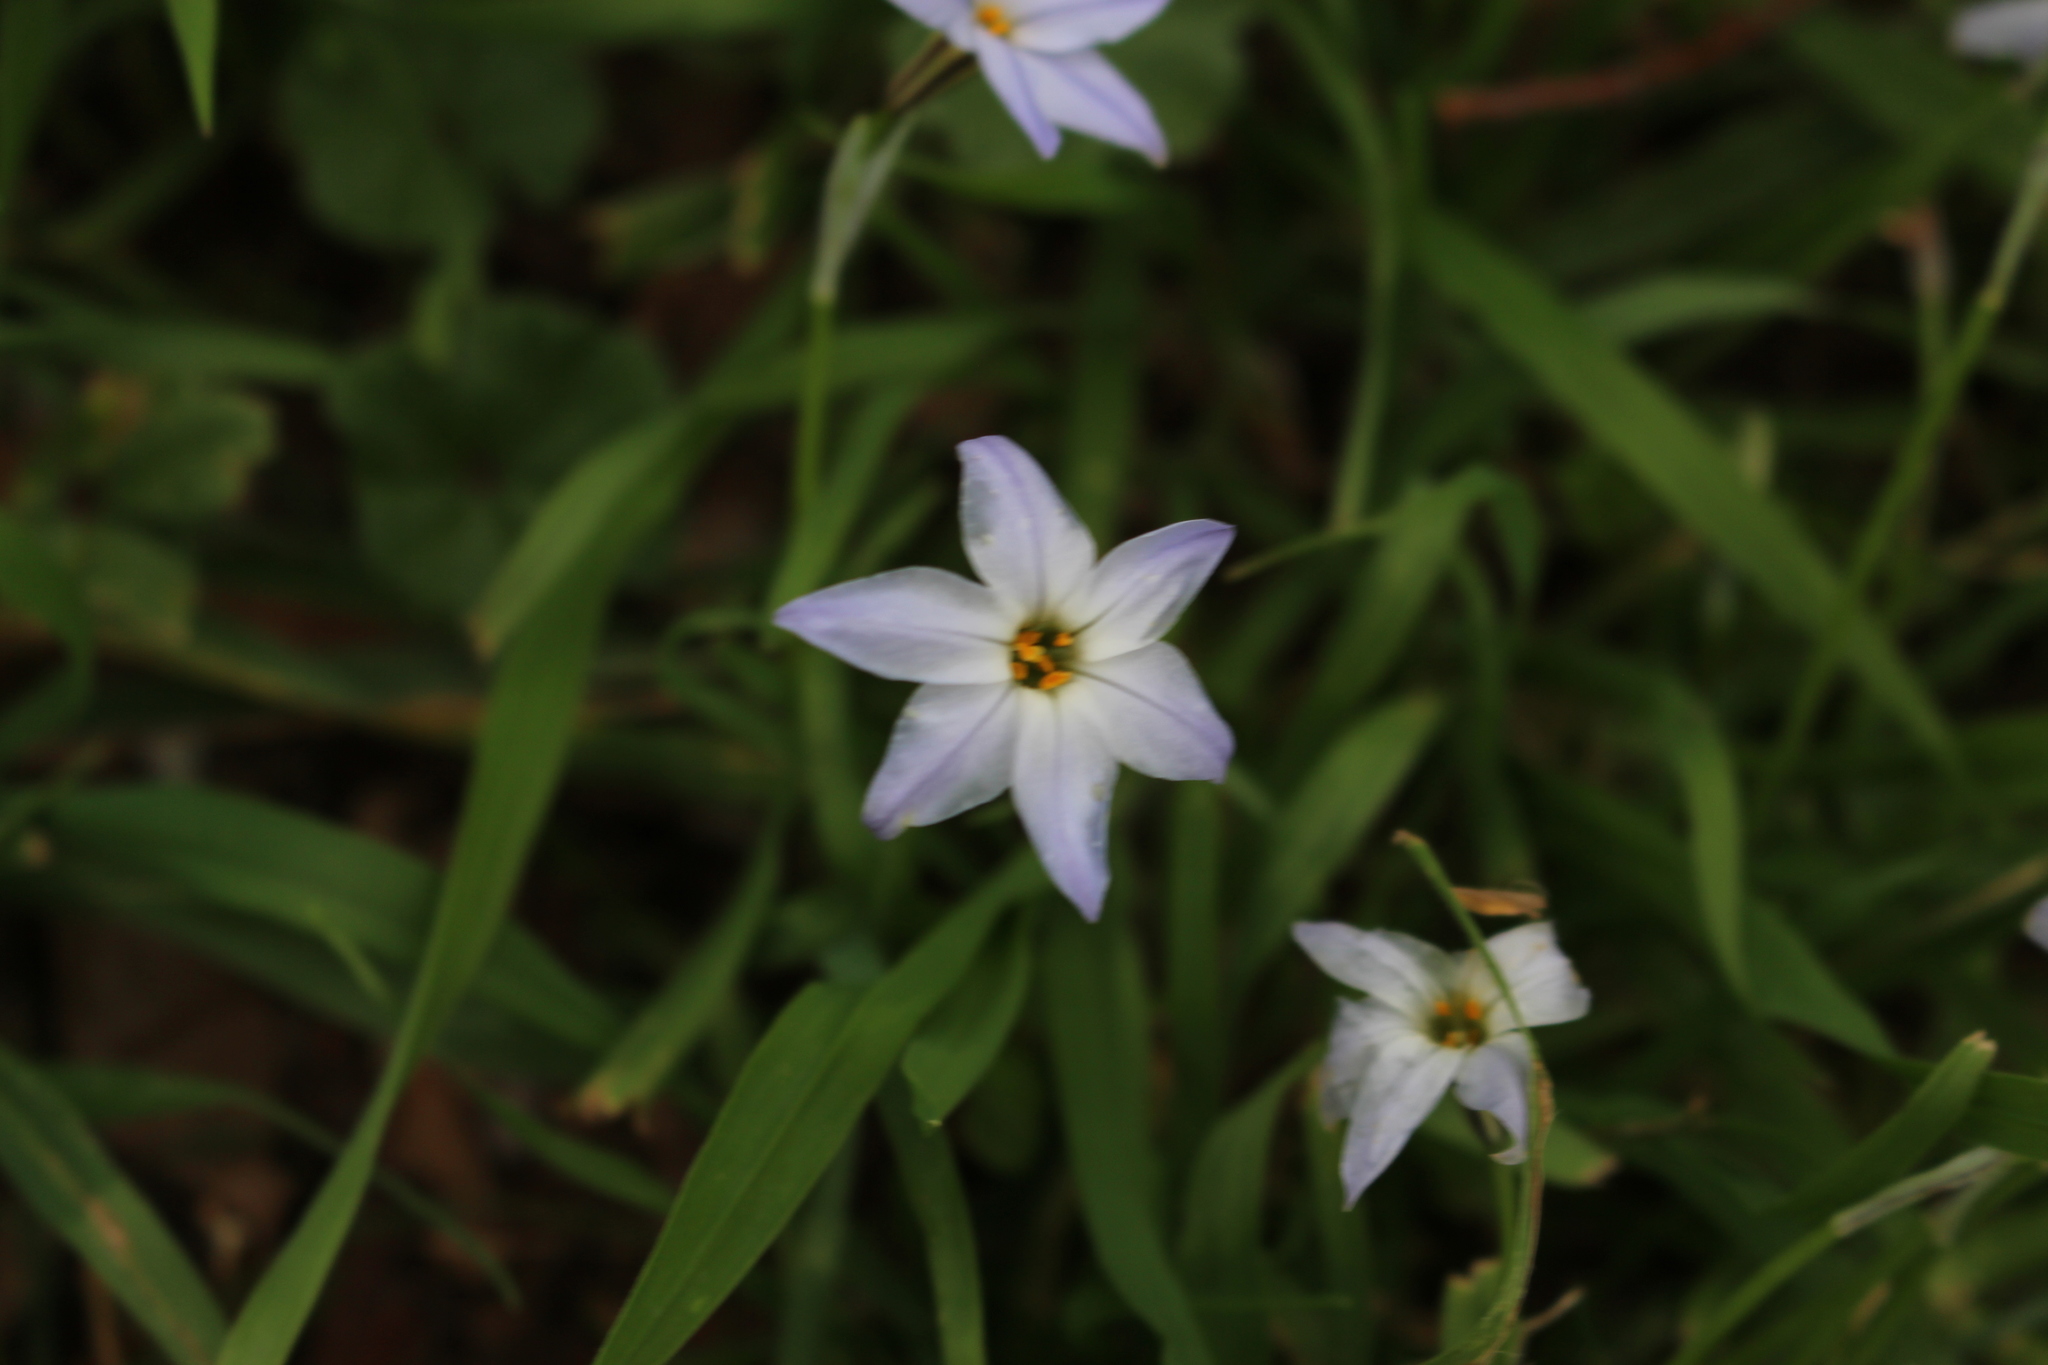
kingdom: Plantae
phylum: Tracheophyta
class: Liliopsida
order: Asparagales
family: Amaryllidaceae
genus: Ipheion
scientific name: Ipheion uniflorum
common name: Spring starflower
